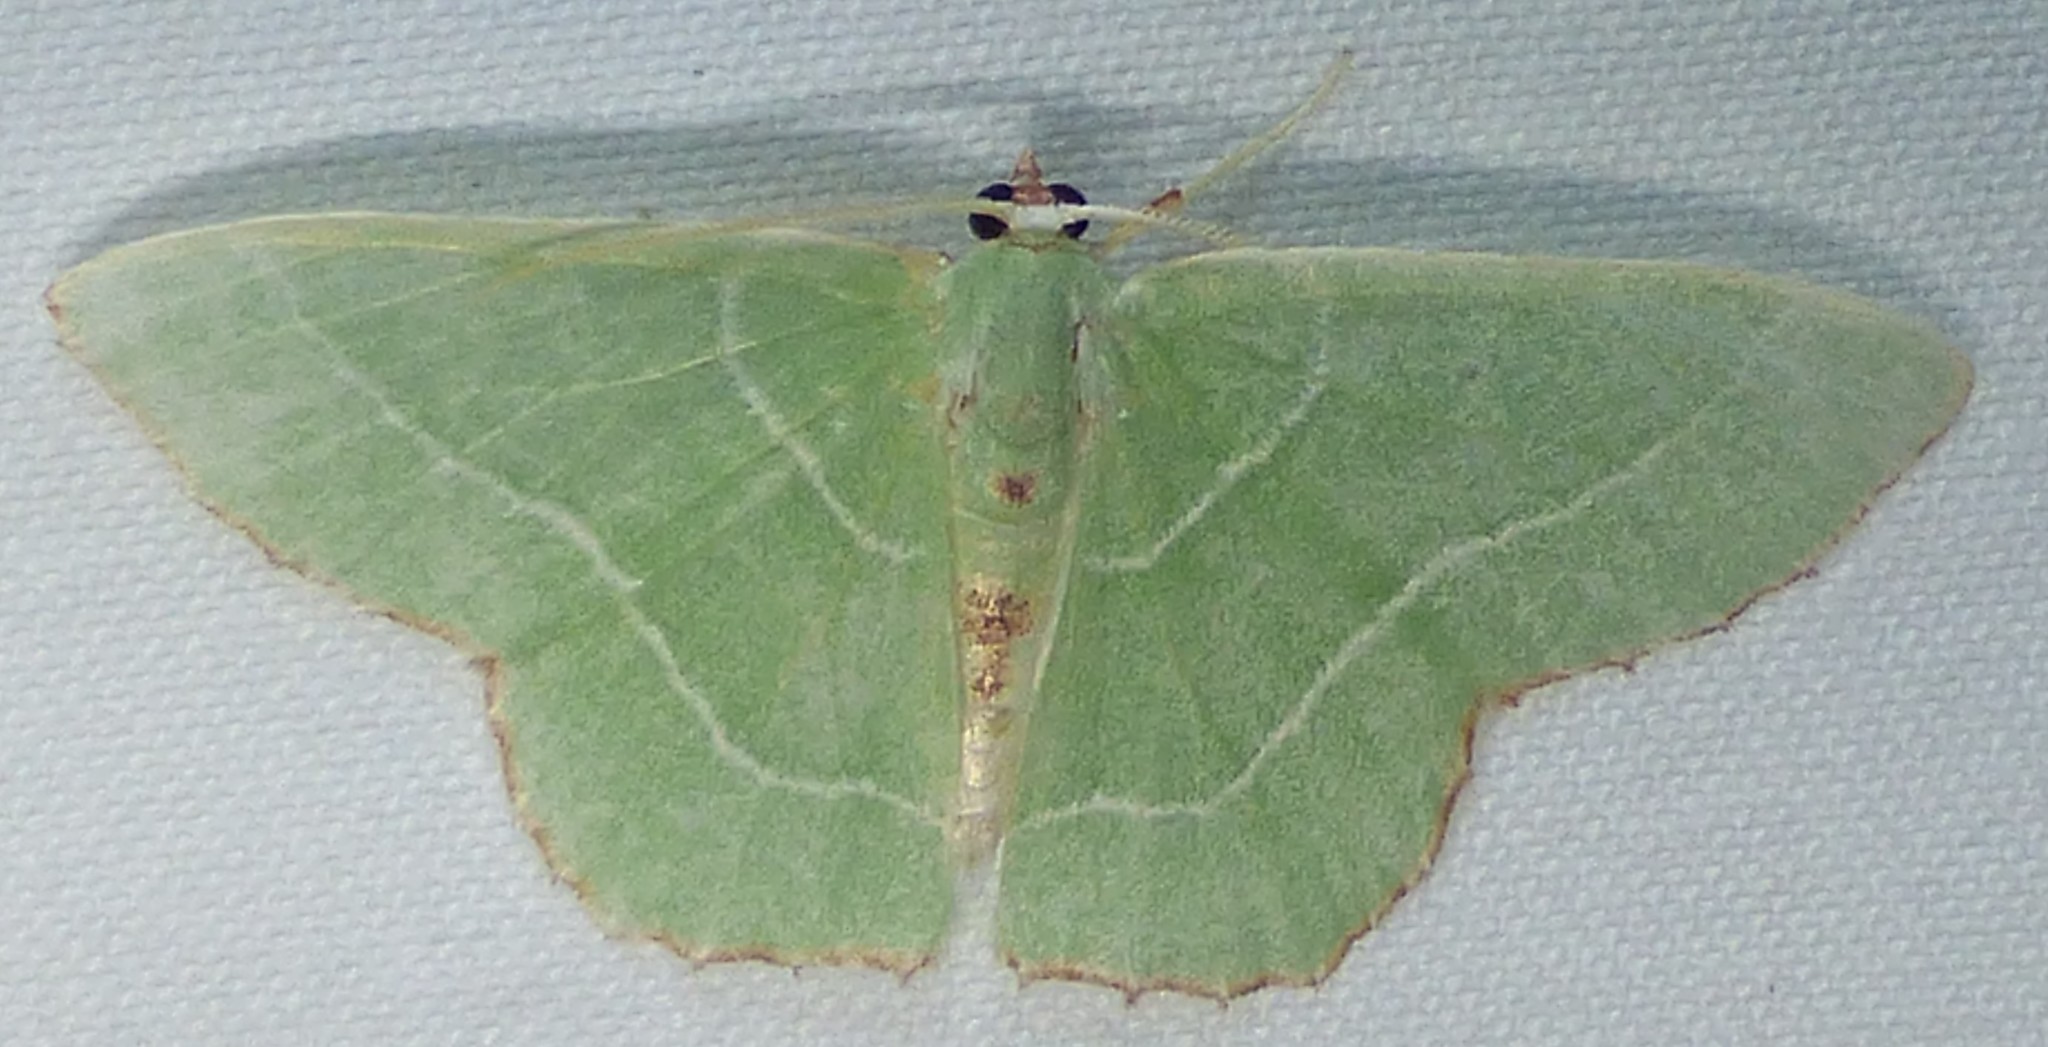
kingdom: Animalia
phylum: Arthropoda
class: Insecta
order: Lepidoptera
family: Geometridae
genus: Nemoria
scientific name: Nemoria saturiba
